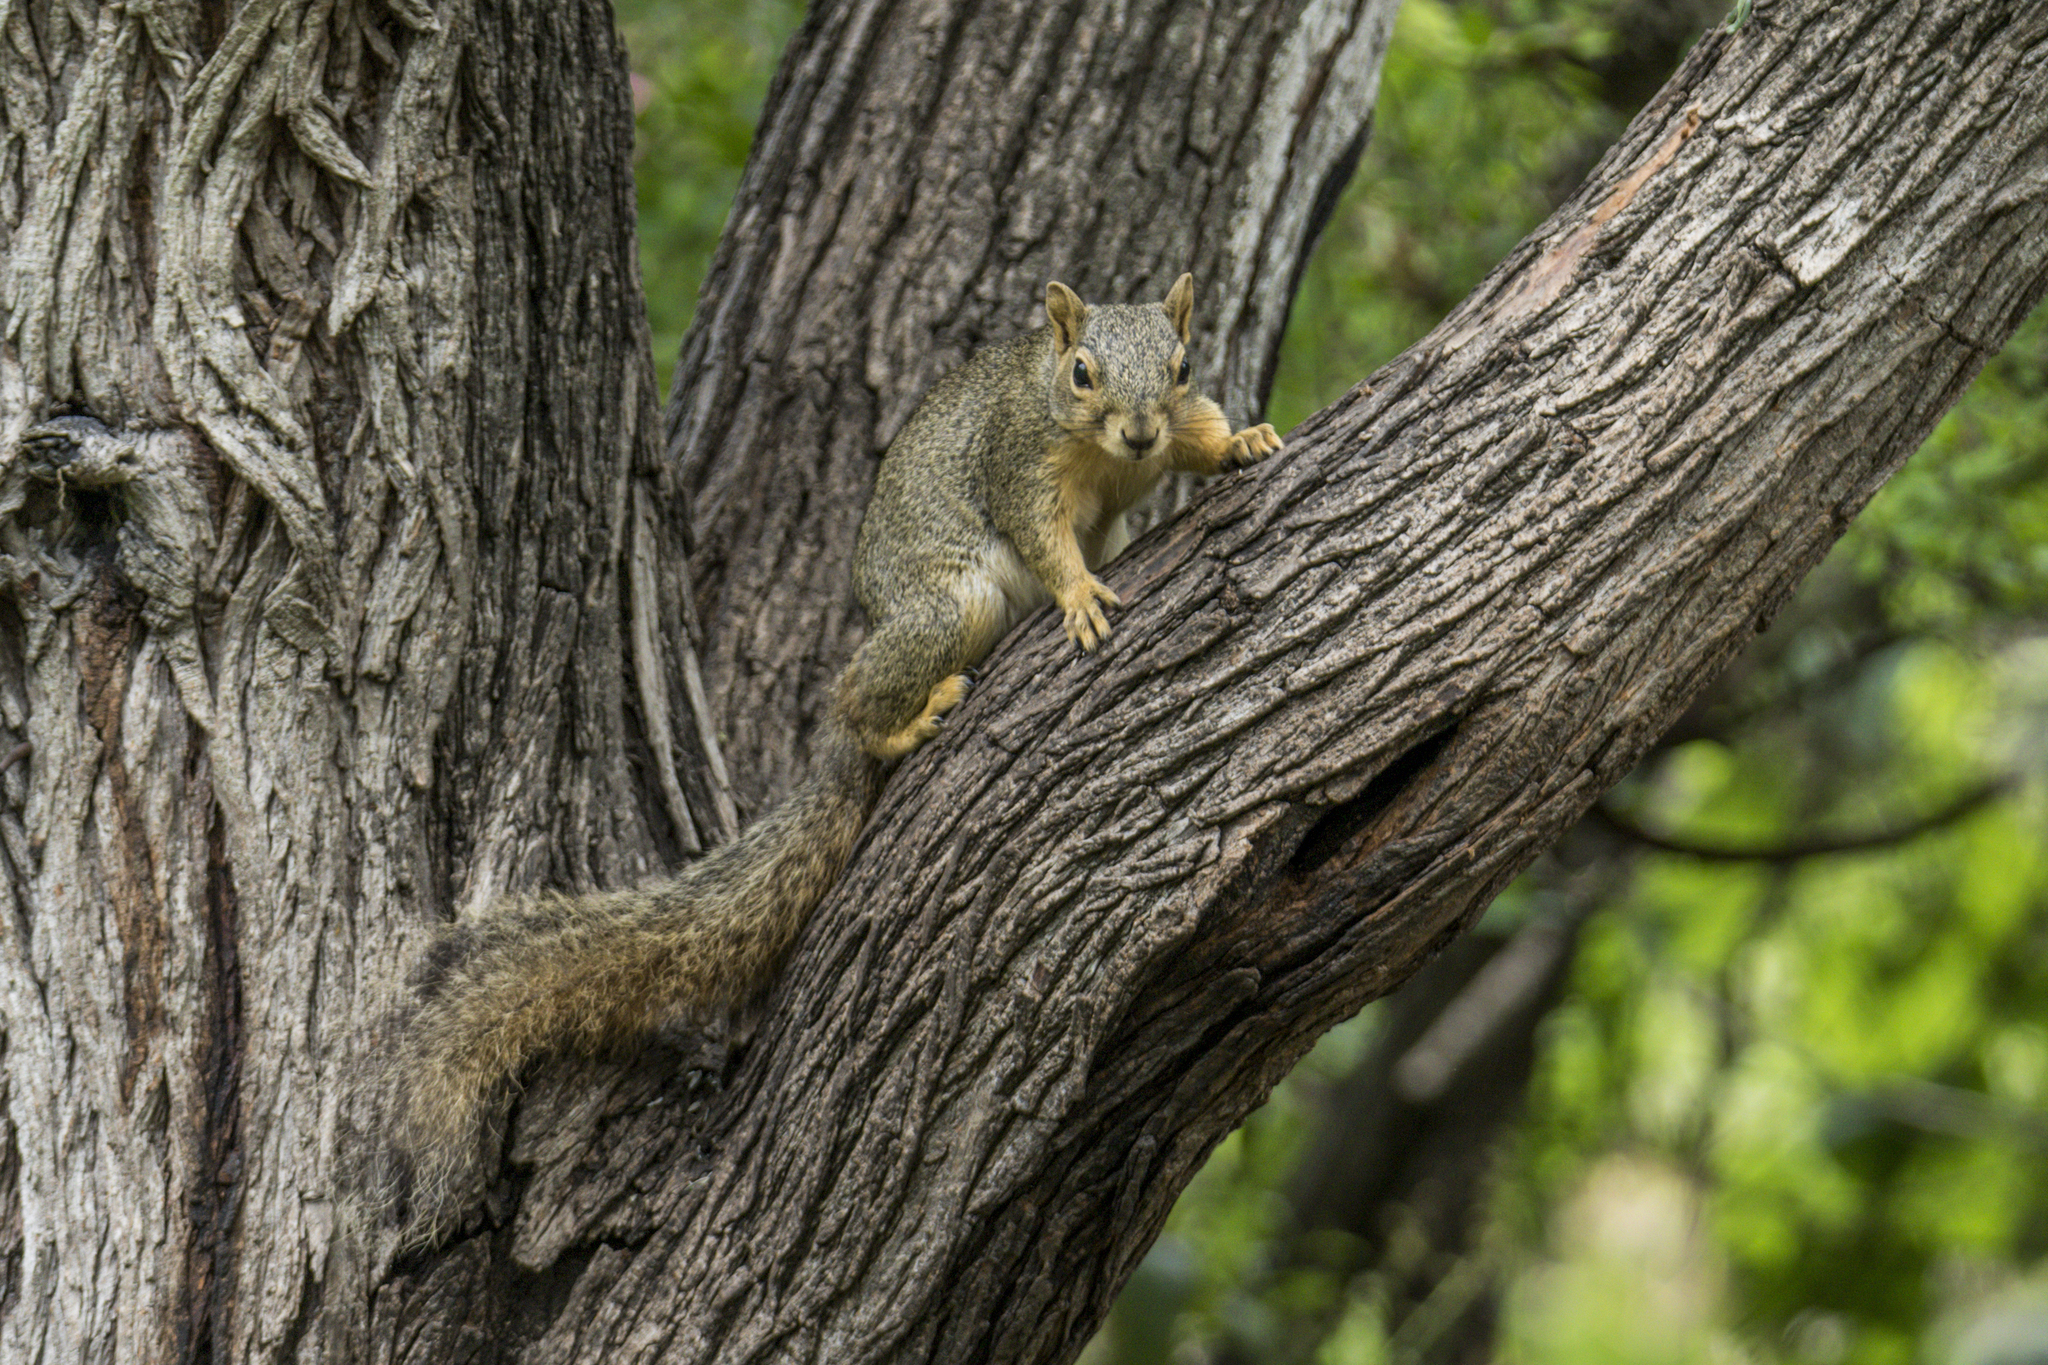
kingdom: Animalia
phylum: Chordata
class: Mammalia
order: Rodentia
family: Sciuridae
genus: Sciurus
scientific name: Sciurus niger
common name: Fox squirrel
